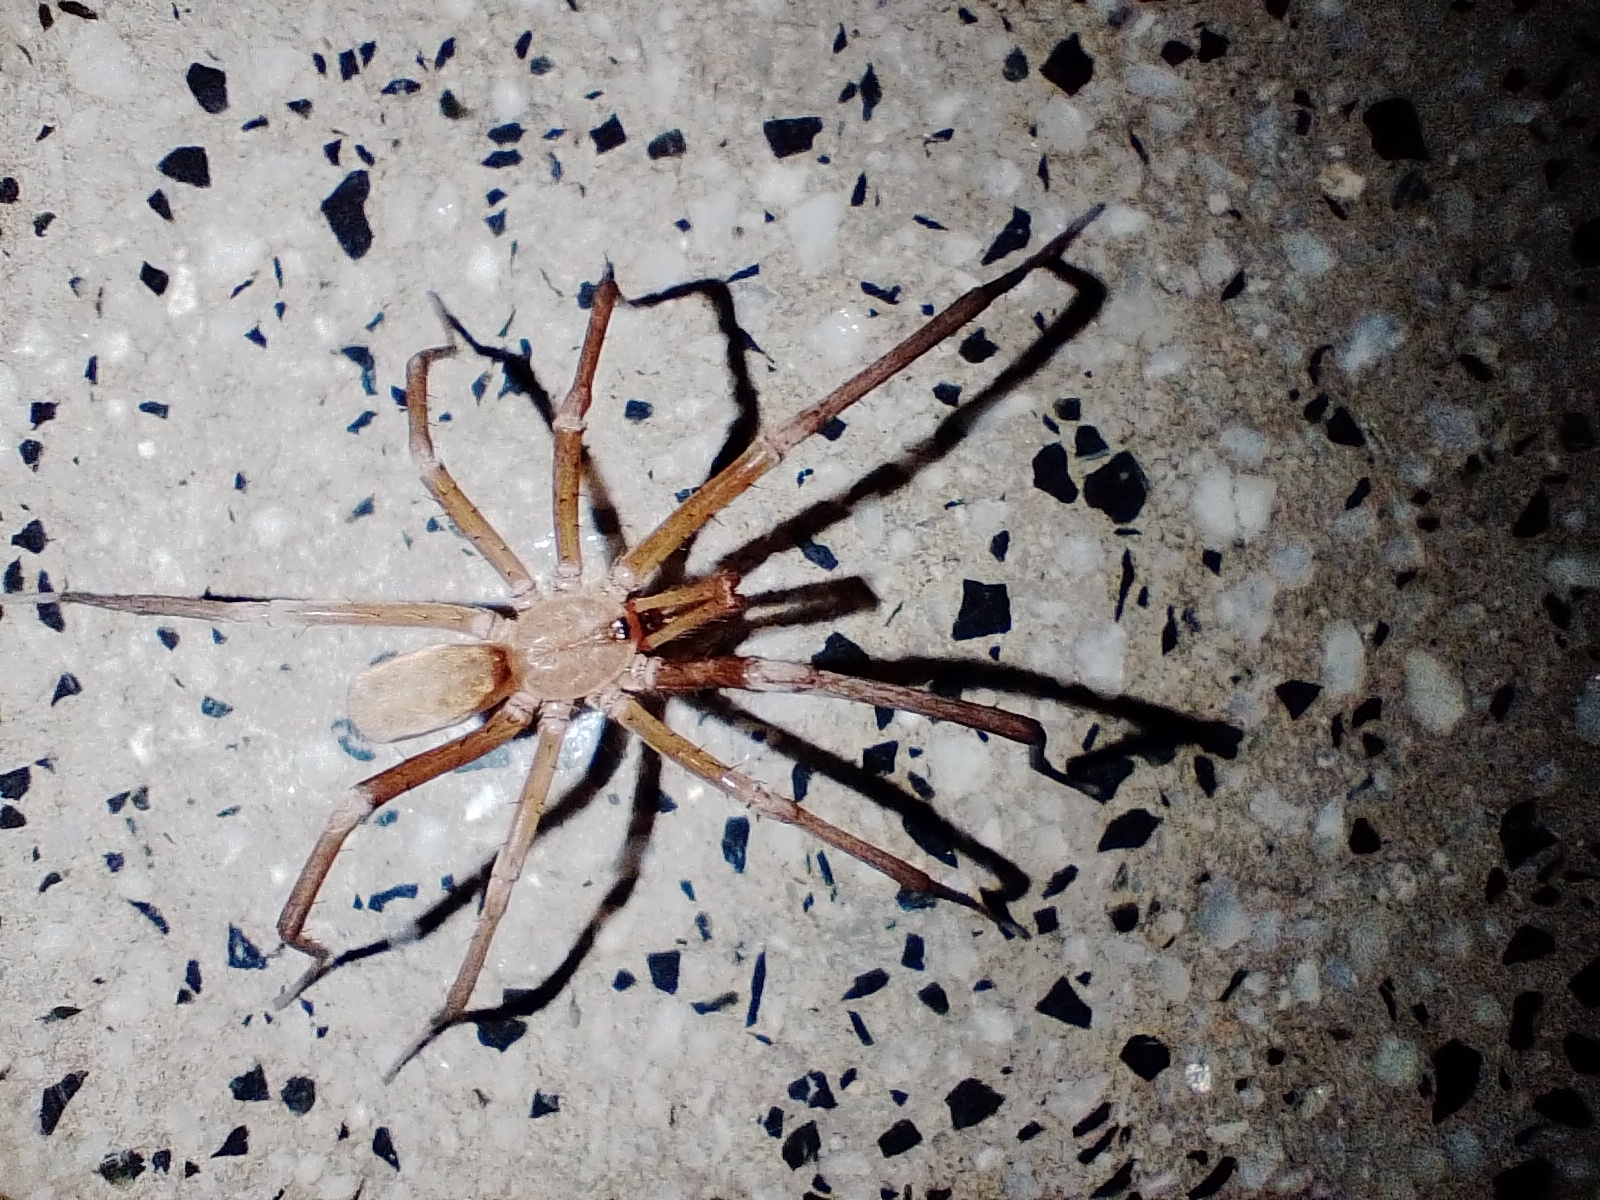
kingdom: Animalia
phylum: Arthropoda
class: Arachnida
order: Araneae
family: Filistatidae
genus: Kukulcania
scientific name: Kukulcania hibernalis
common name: Crevice weaver
